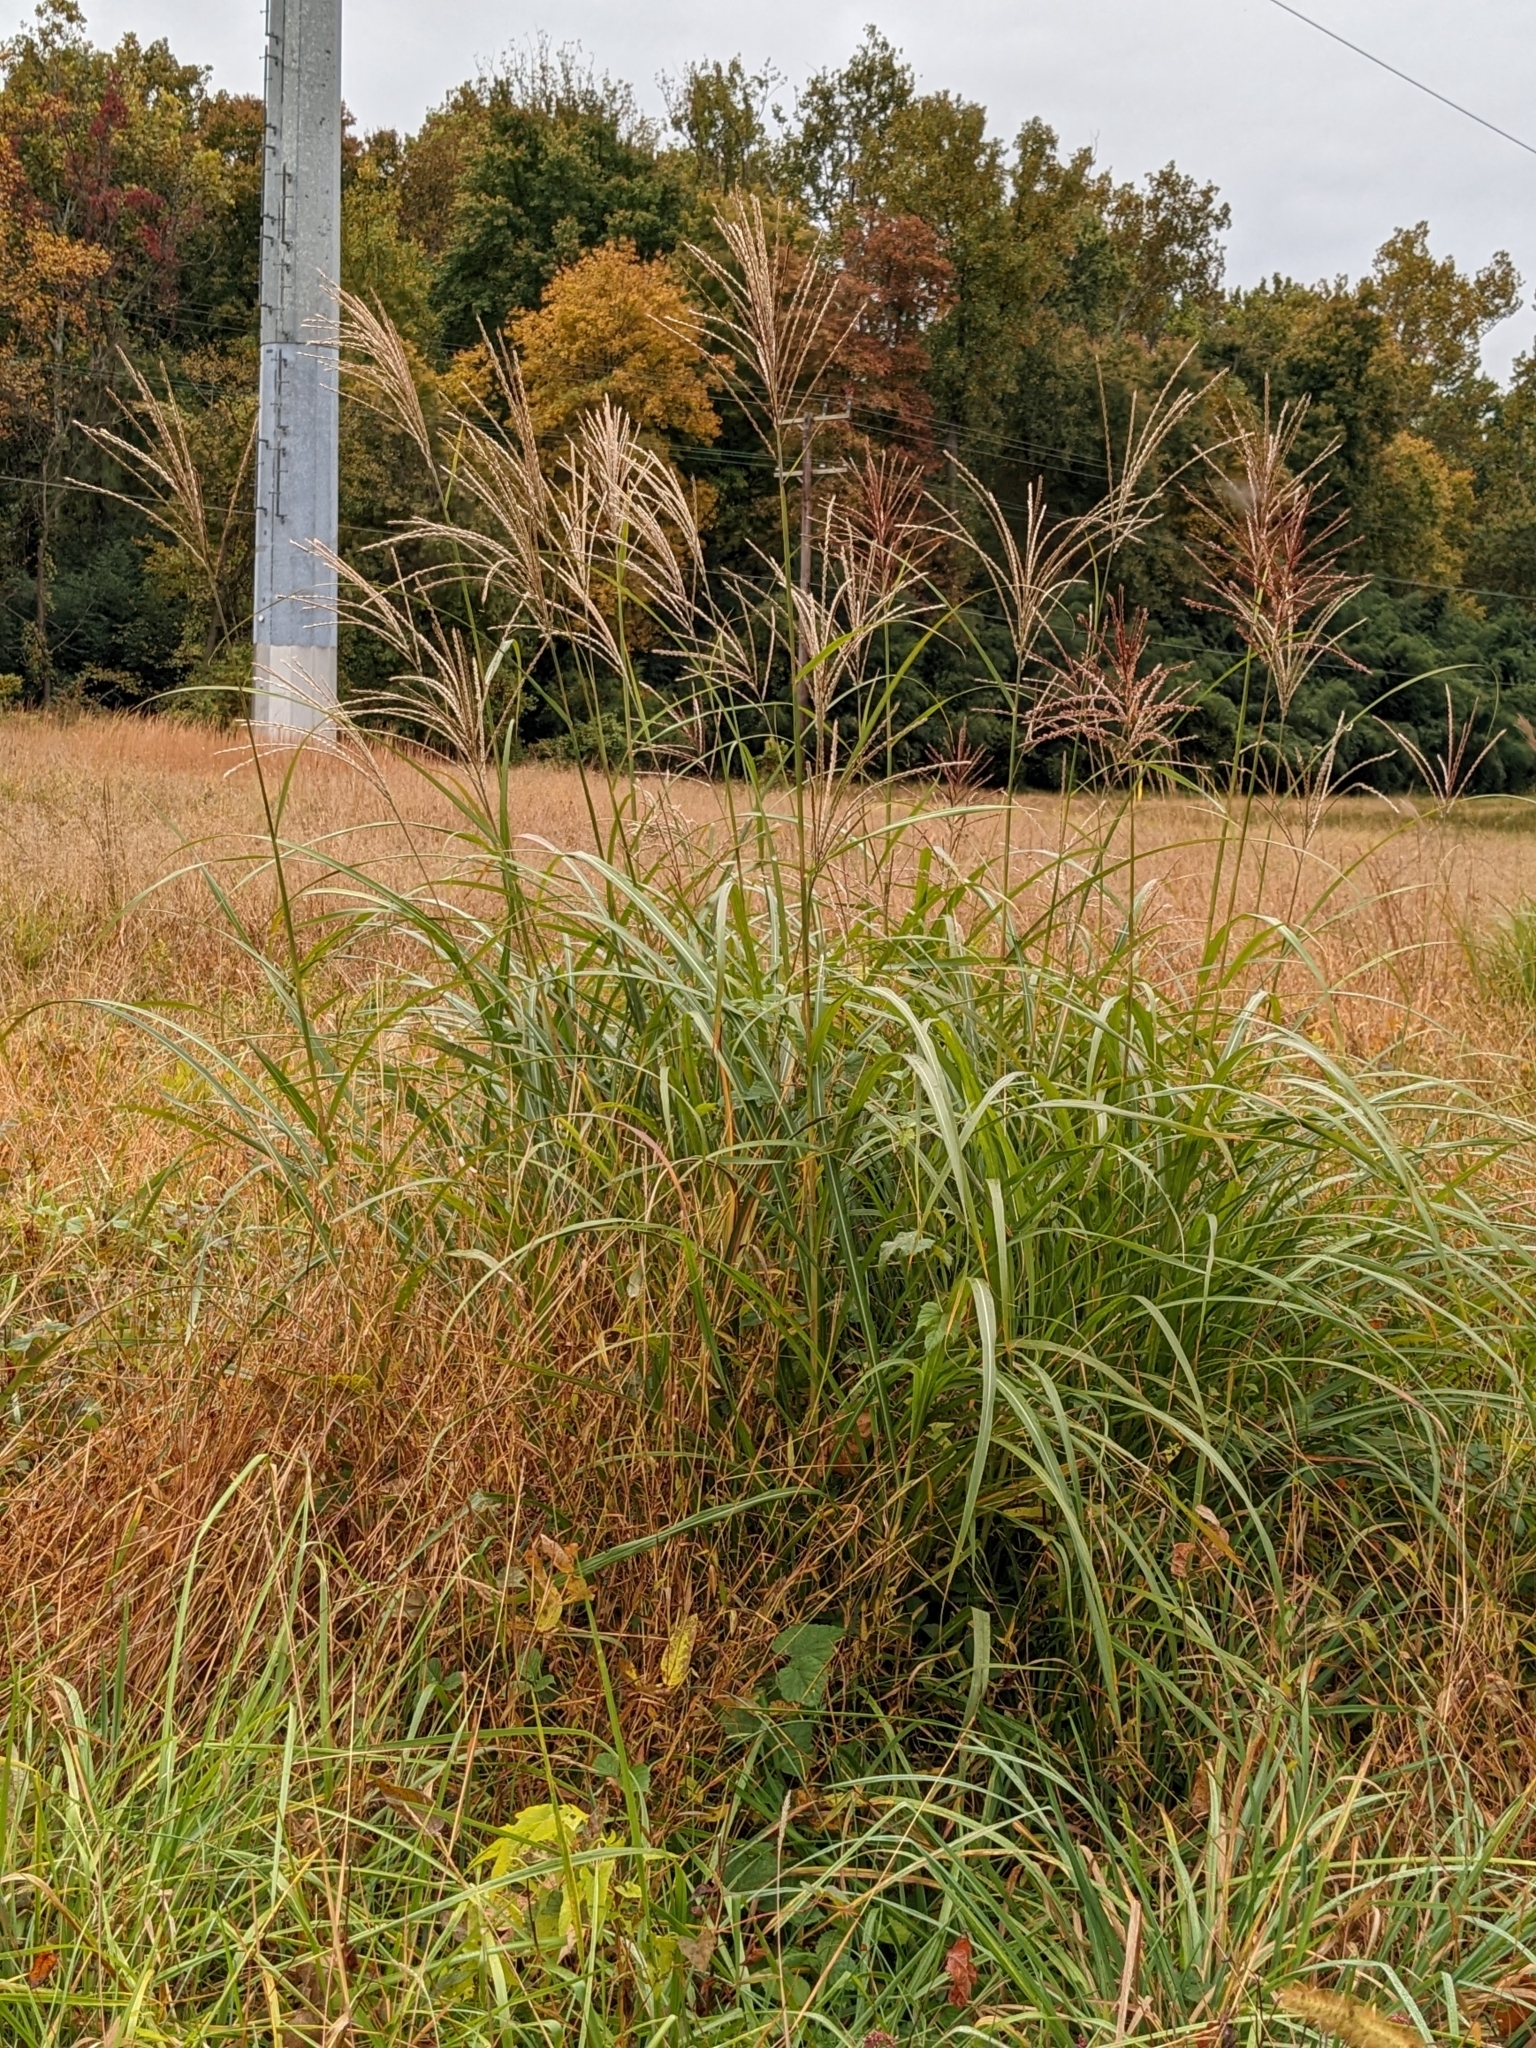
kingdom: Plantae
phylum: Tracheophyta
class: Liliopsida
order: Poales
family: Poaceae
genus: Miscanthus
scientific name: Miscanthus sinensis
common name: Chinese silvergrass
